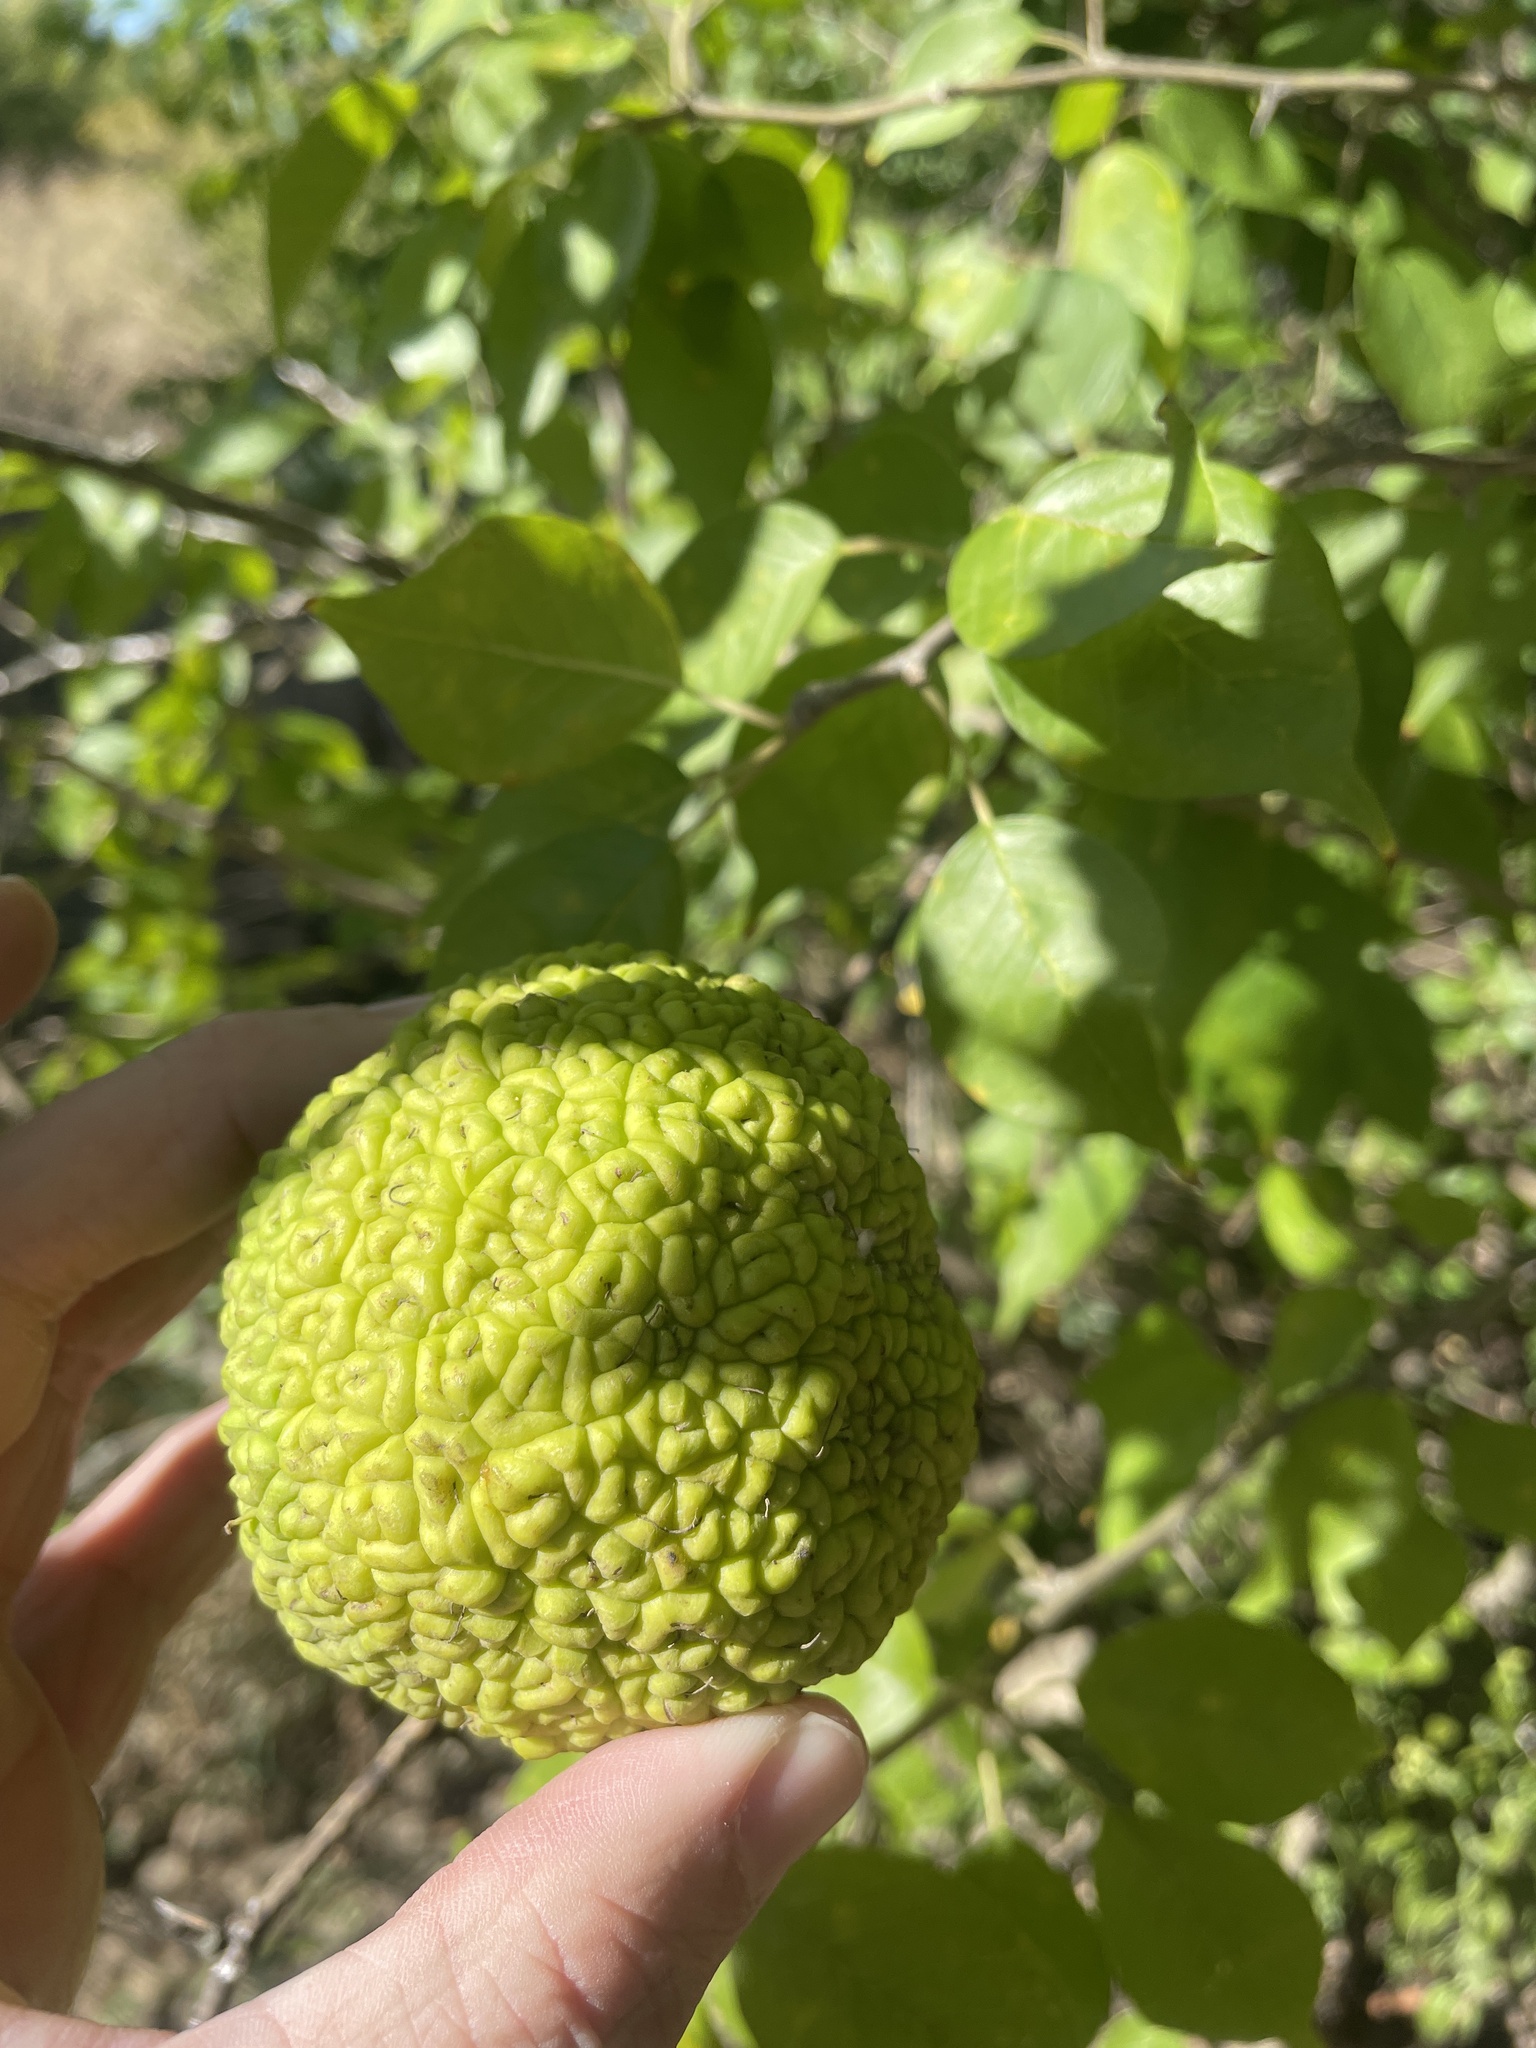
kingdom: Plantae
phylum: Tracheophyta
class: Magnoliopsida
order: Rosales
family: Moraceae
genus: Maclura
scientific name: Maclura pomifera
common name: Osage-orange
